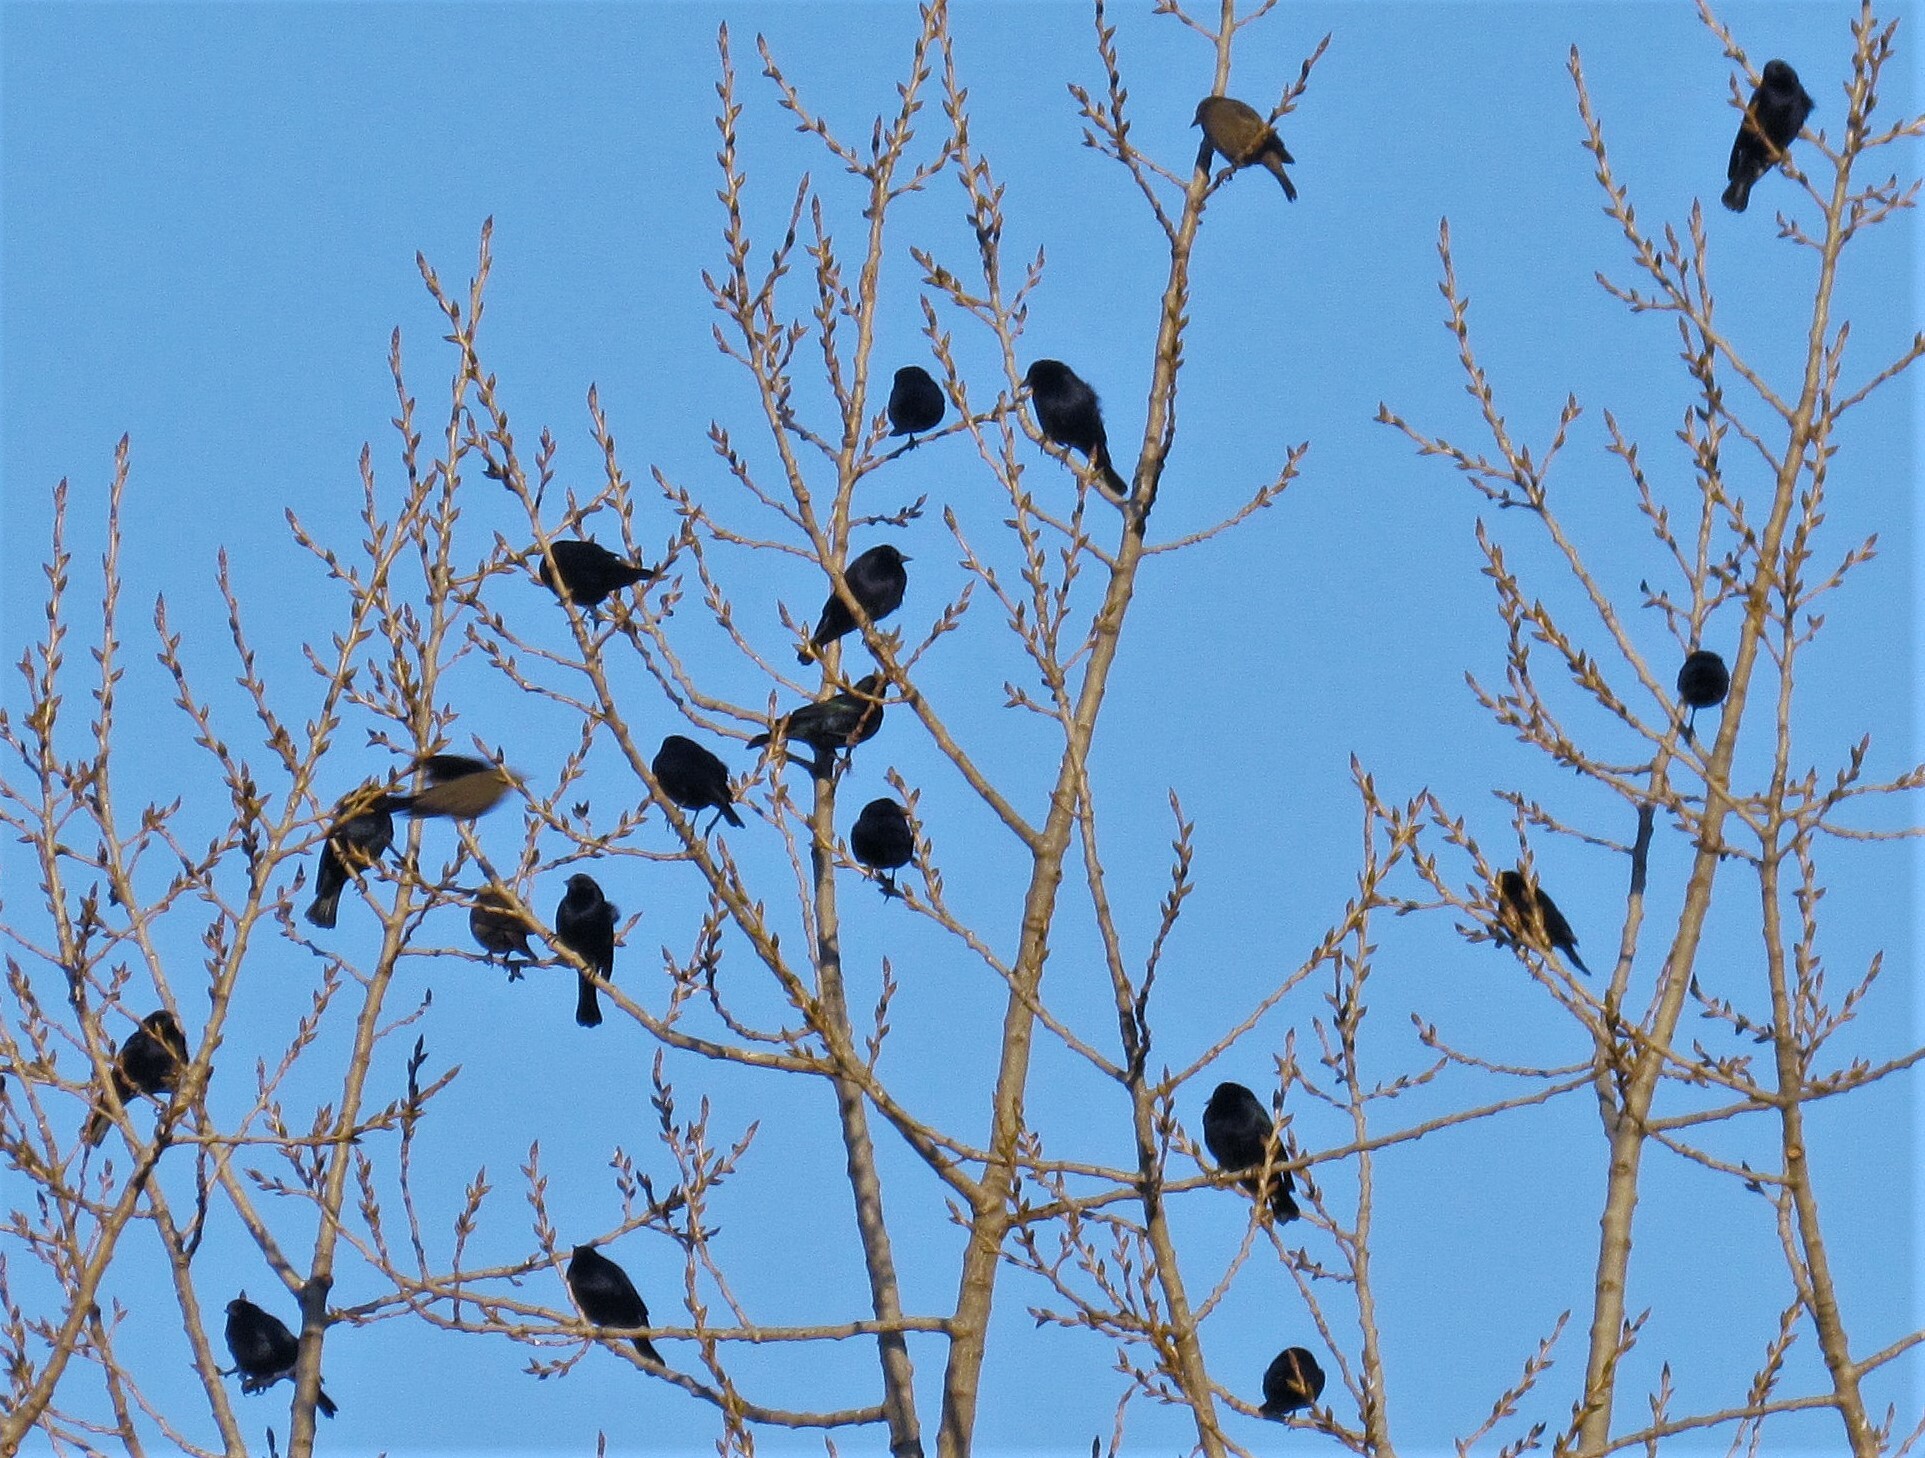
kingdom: Animalia
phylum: Chordata
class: Aves
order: Passeriformes
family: Icteridae
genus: Molothrus
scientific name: Molothrus bonariensis
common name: Shiny cowbird
